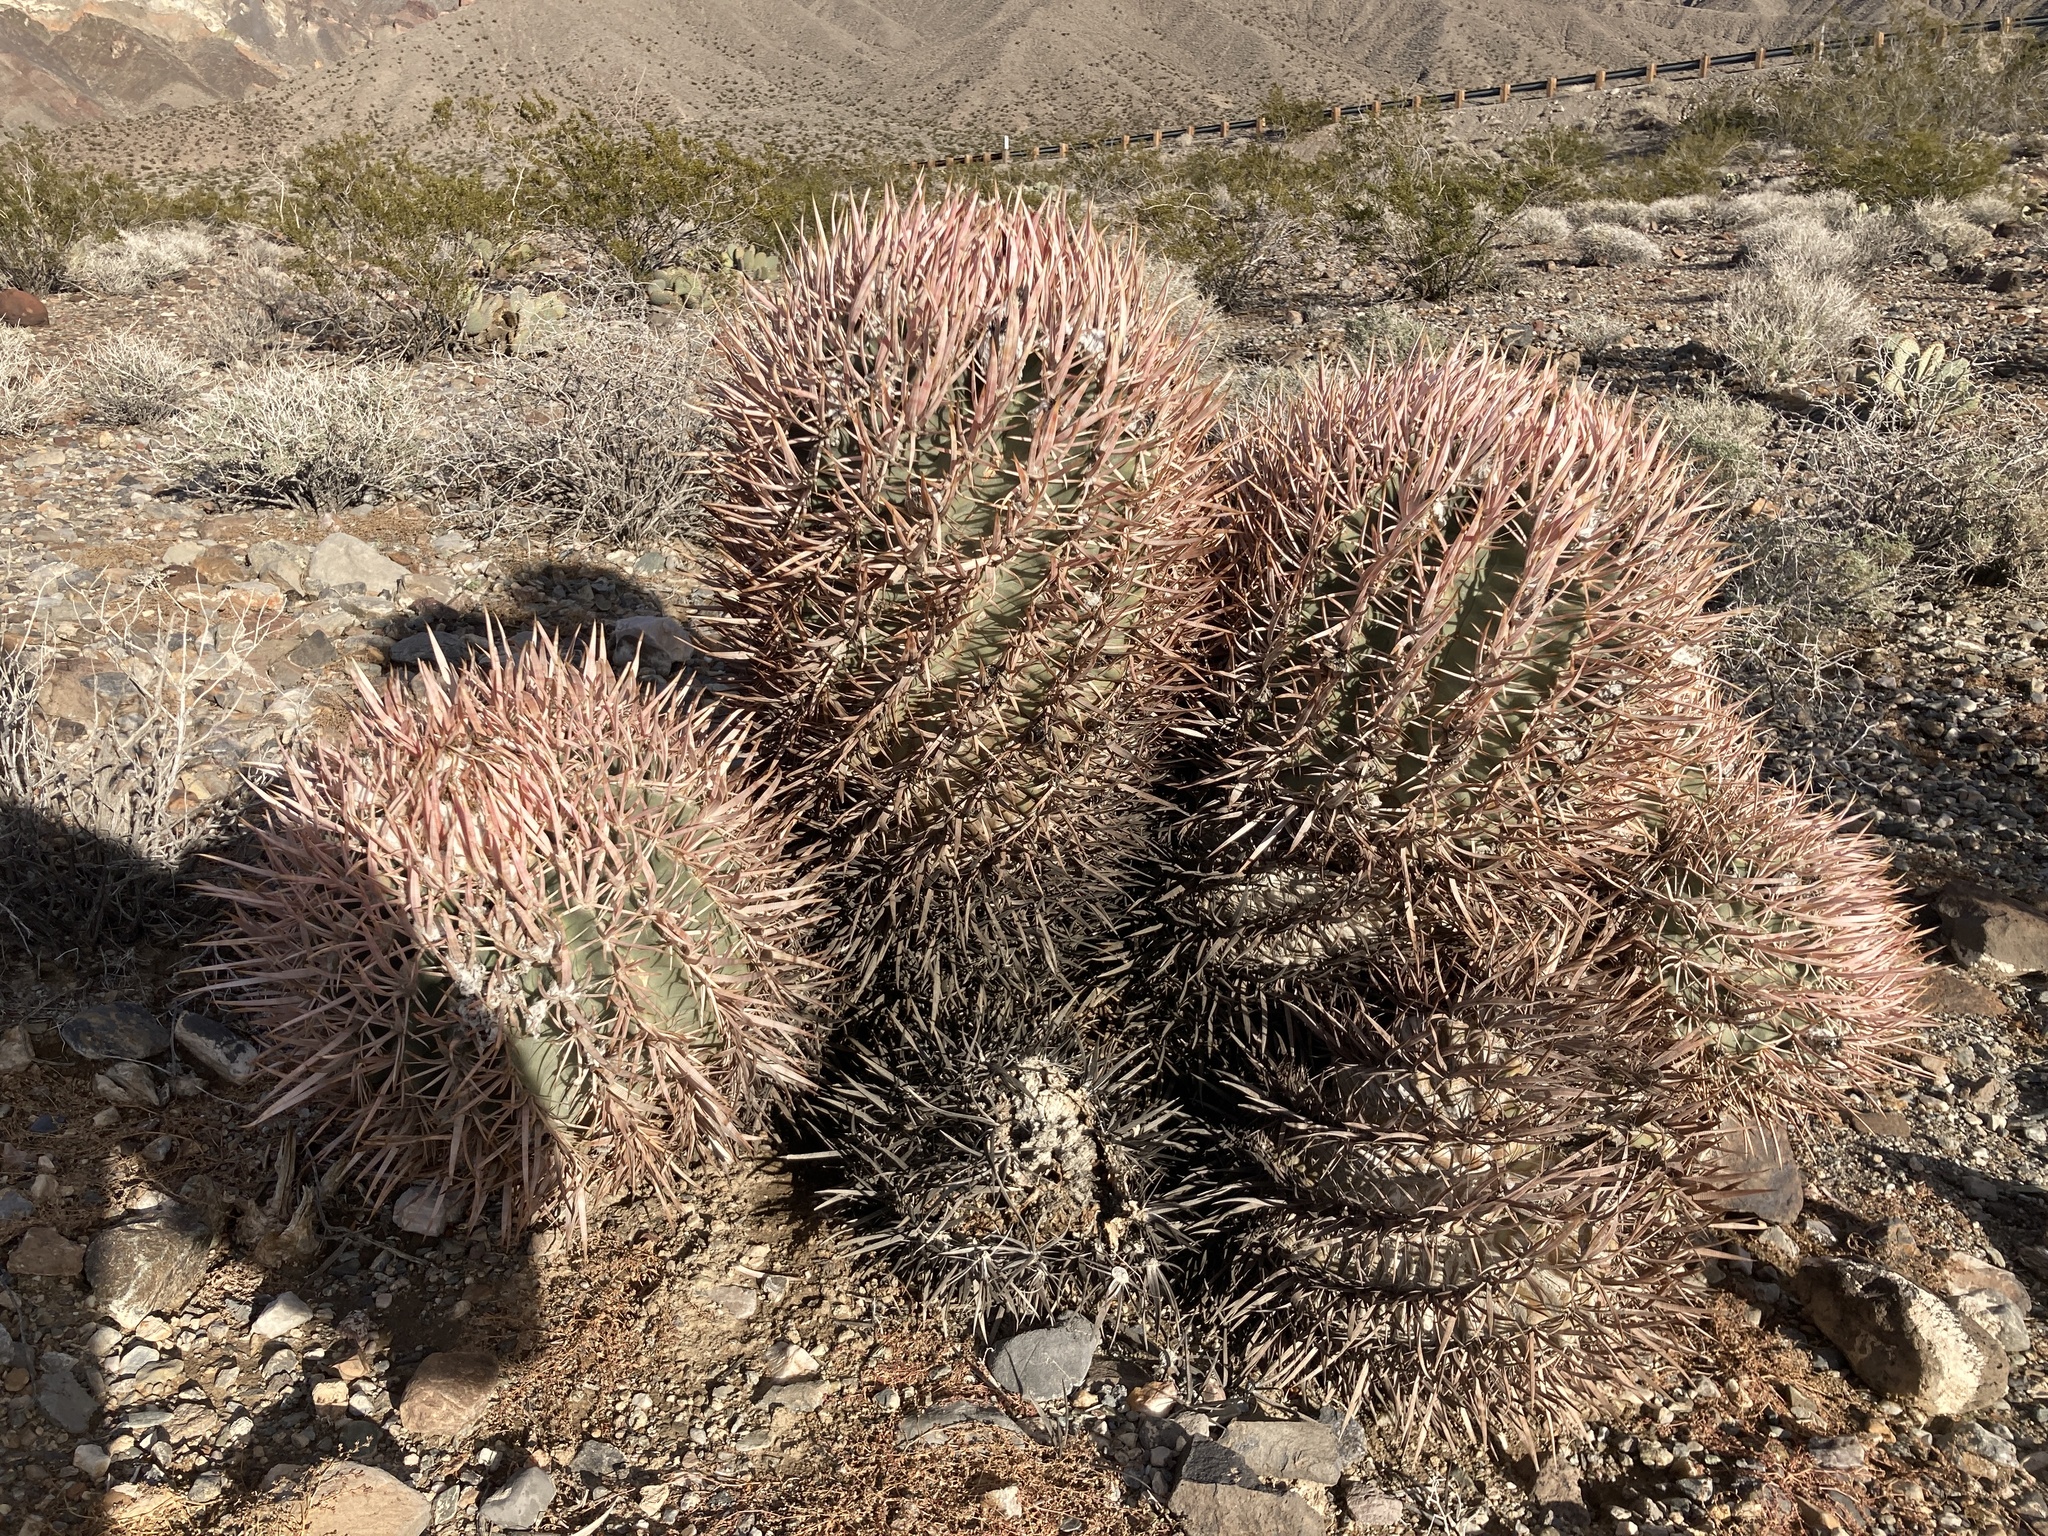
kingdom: Plantae
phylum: Tracheophyta
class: Magnoliopsida
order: Caryophyllales
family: Cactaceae
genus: Echinocactus
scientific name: Echinocactus polycephalus
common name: Cottontop cactus
